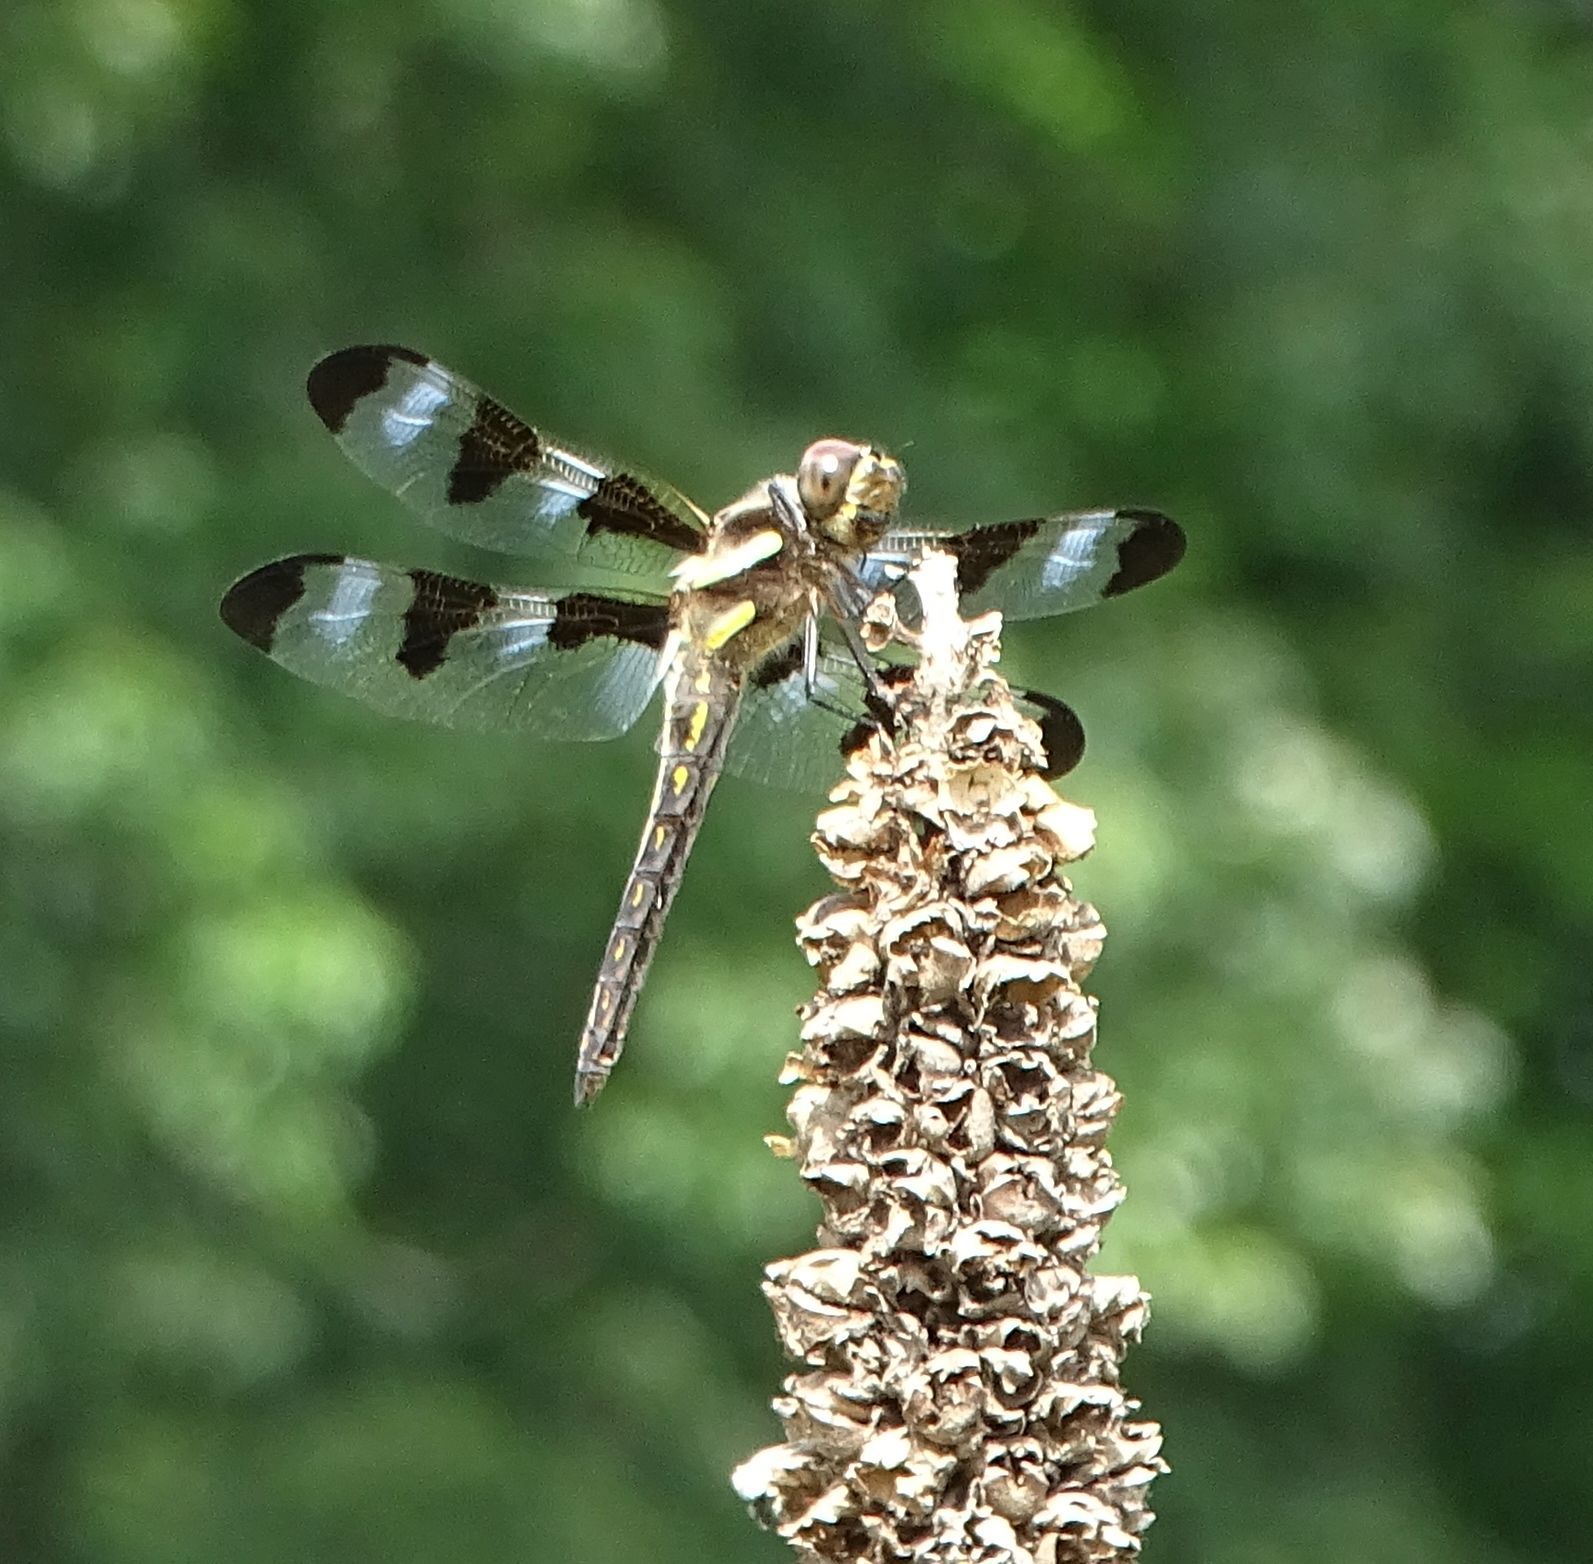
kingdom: Animalia
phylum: Arthropoda
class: Insecta
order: Odonata
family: Libellulidae
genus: Libellula
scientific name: Libellula pulchella
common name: Twelve-spotted skimmer
